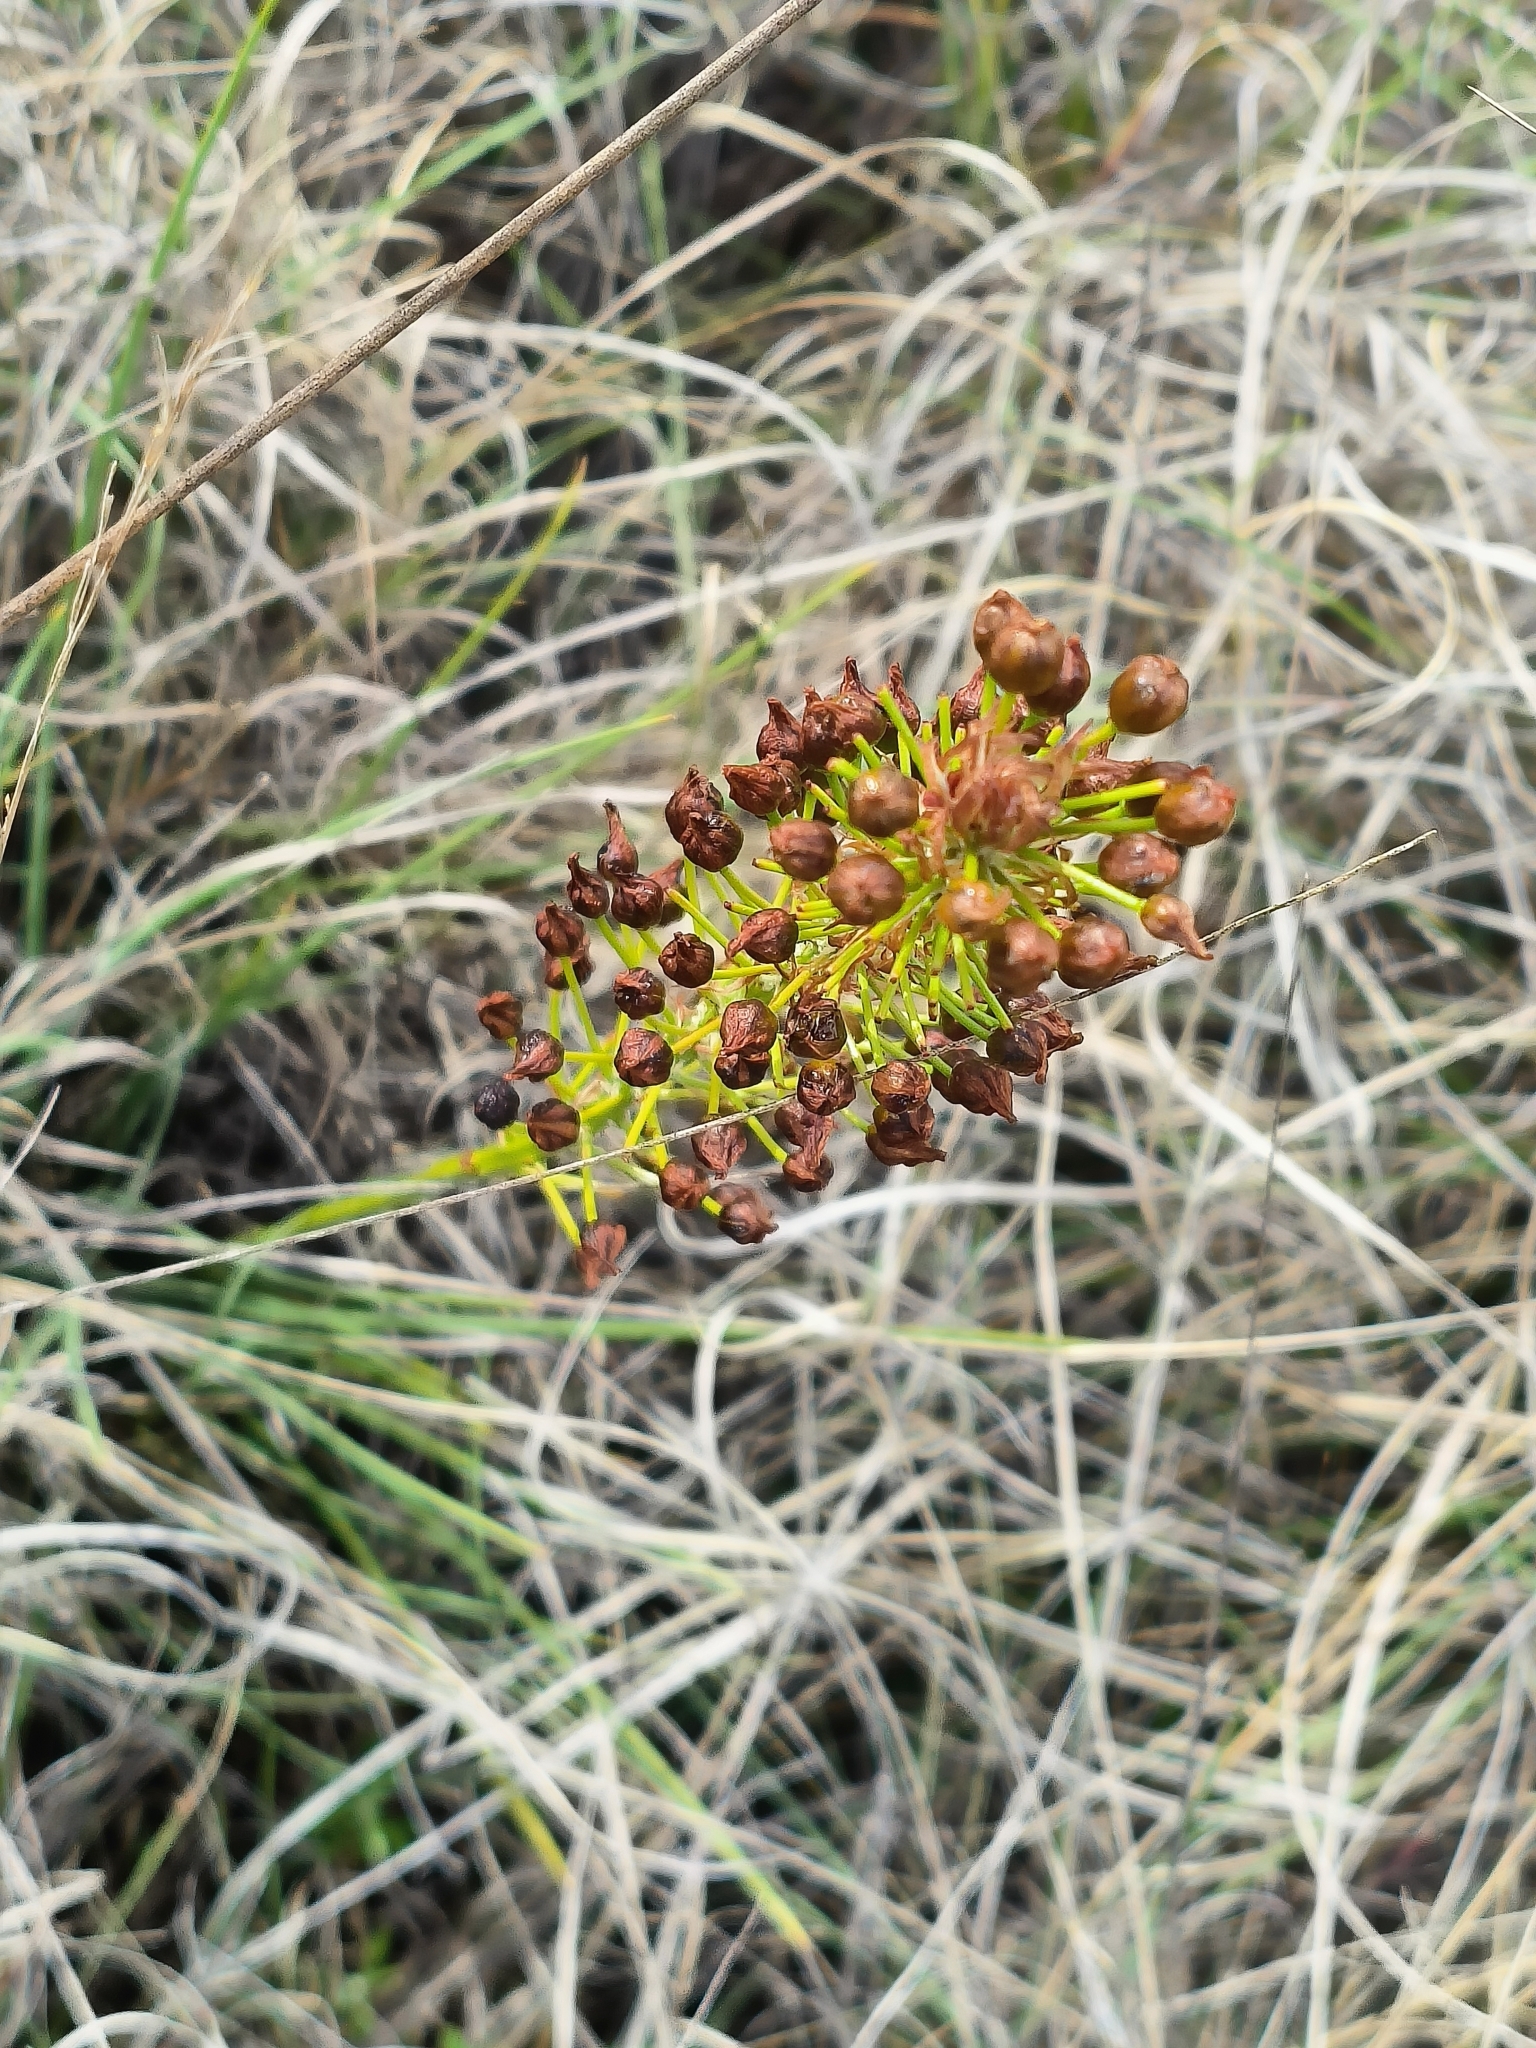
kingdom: Plantae
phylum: Tracheophyta
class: Liliopsida
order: Asparagales
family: Asphodelaceae
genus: Bulbine
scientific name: Bulbine abyssinica
